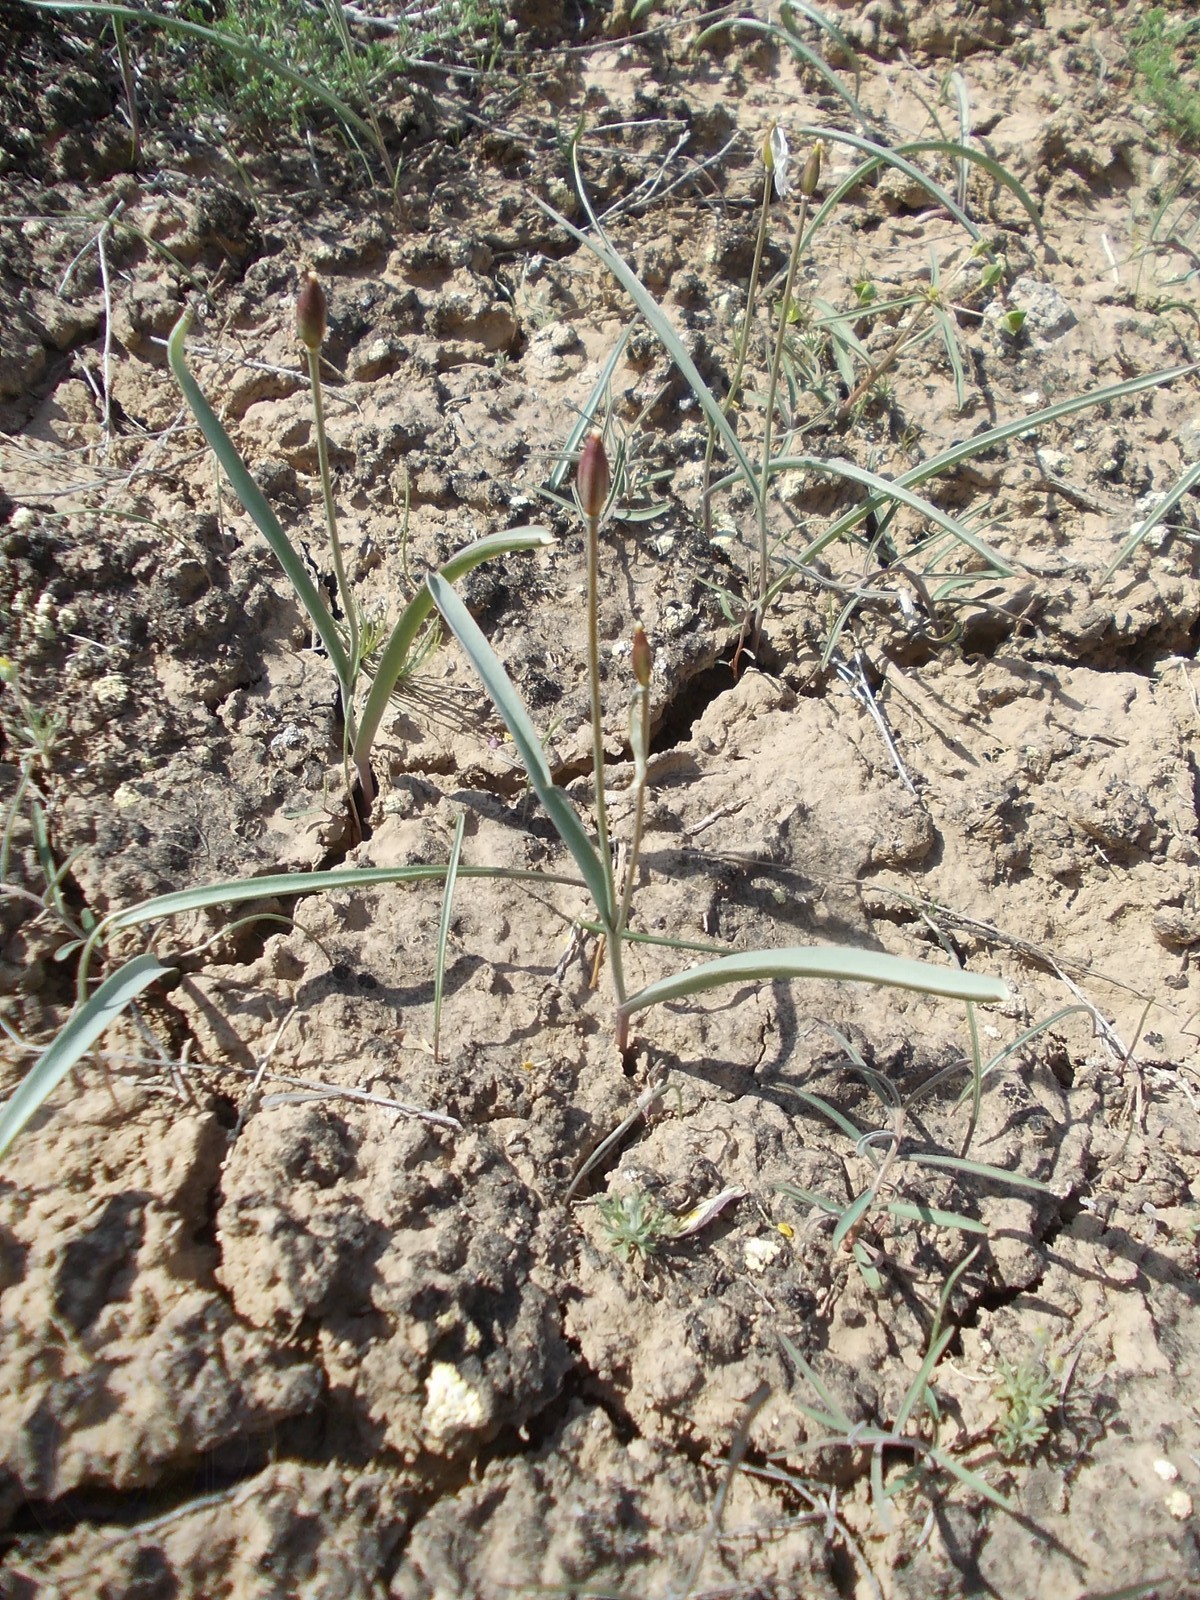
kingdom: Plantae
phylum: Tracheophyta
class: Liliopsida
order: Liliales
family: Liliaceae
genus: Tulipa
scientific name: Tulipa biflora
